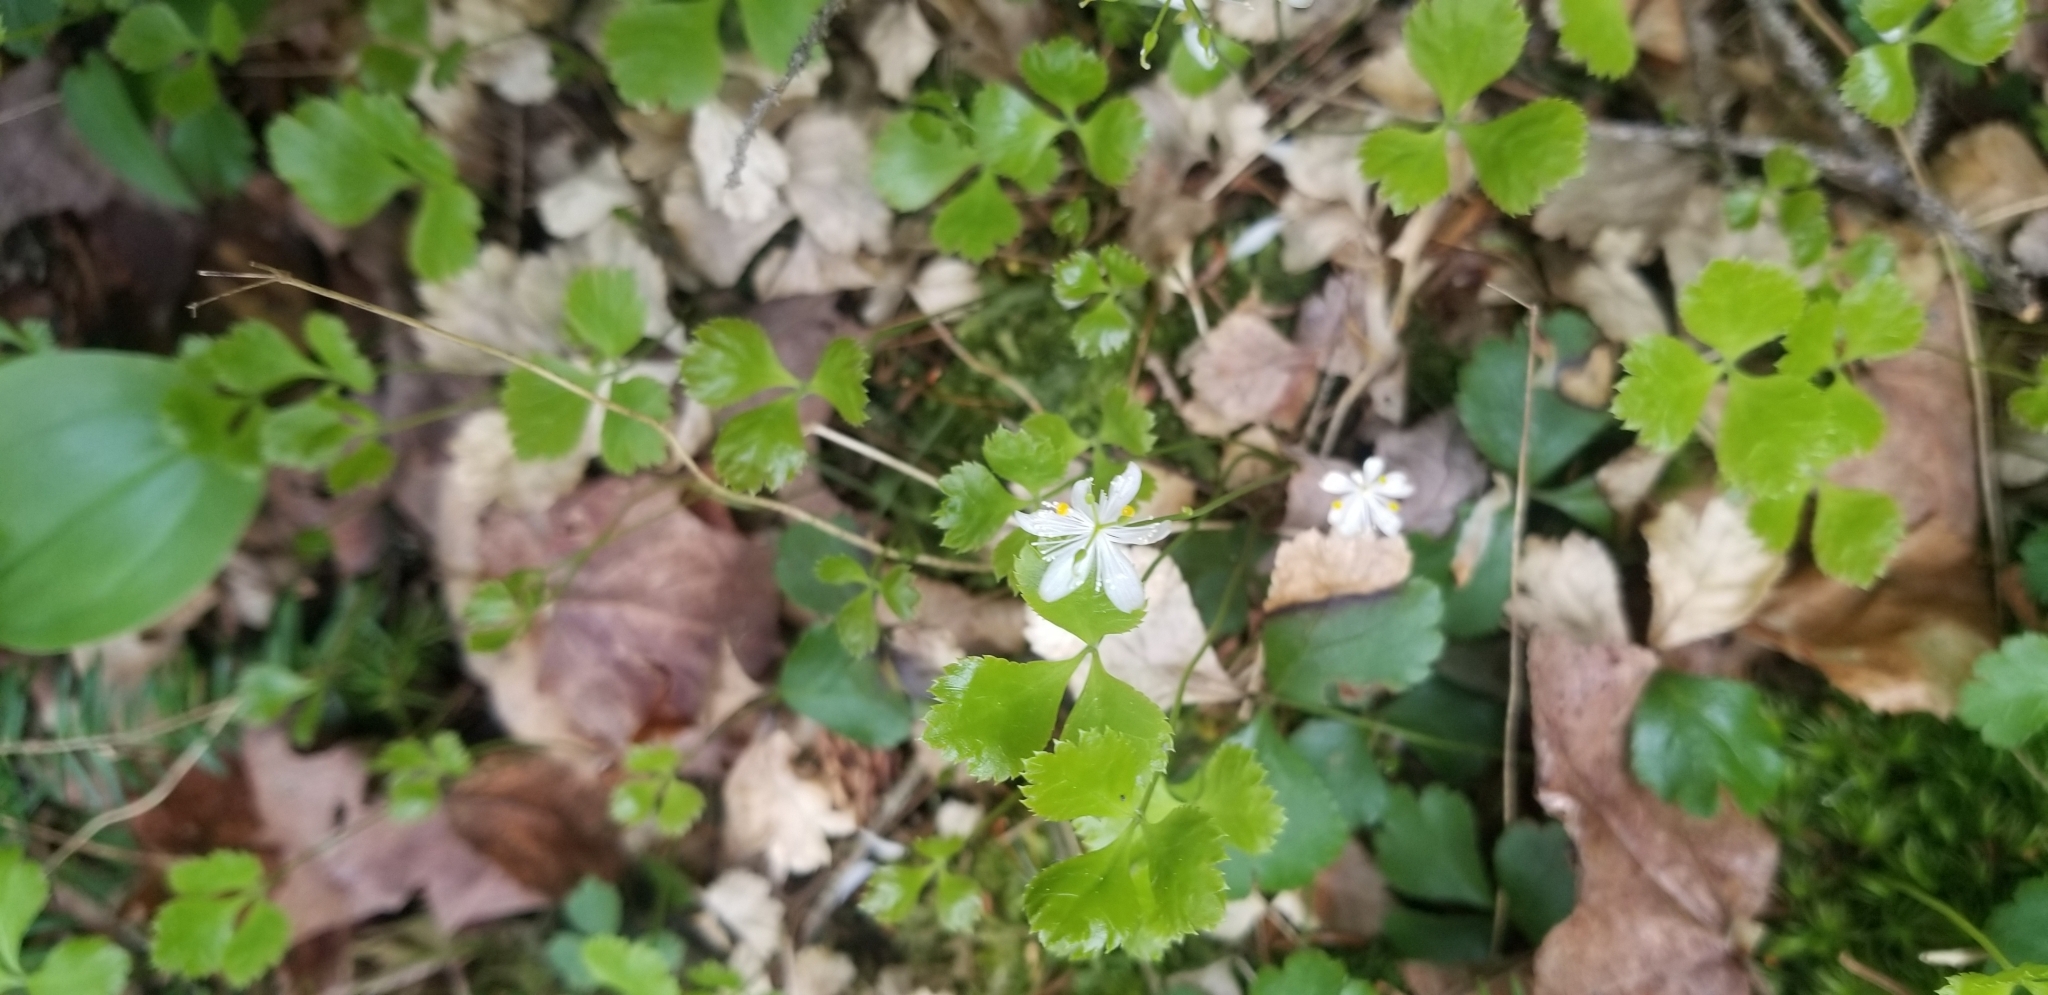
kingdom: Plantae
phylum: Tracheophyta
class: Magnoliopsida
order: Ranunculales
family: Ranunculaceae
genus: Coptis
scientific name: Coptis trifolia
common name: Canker-root
